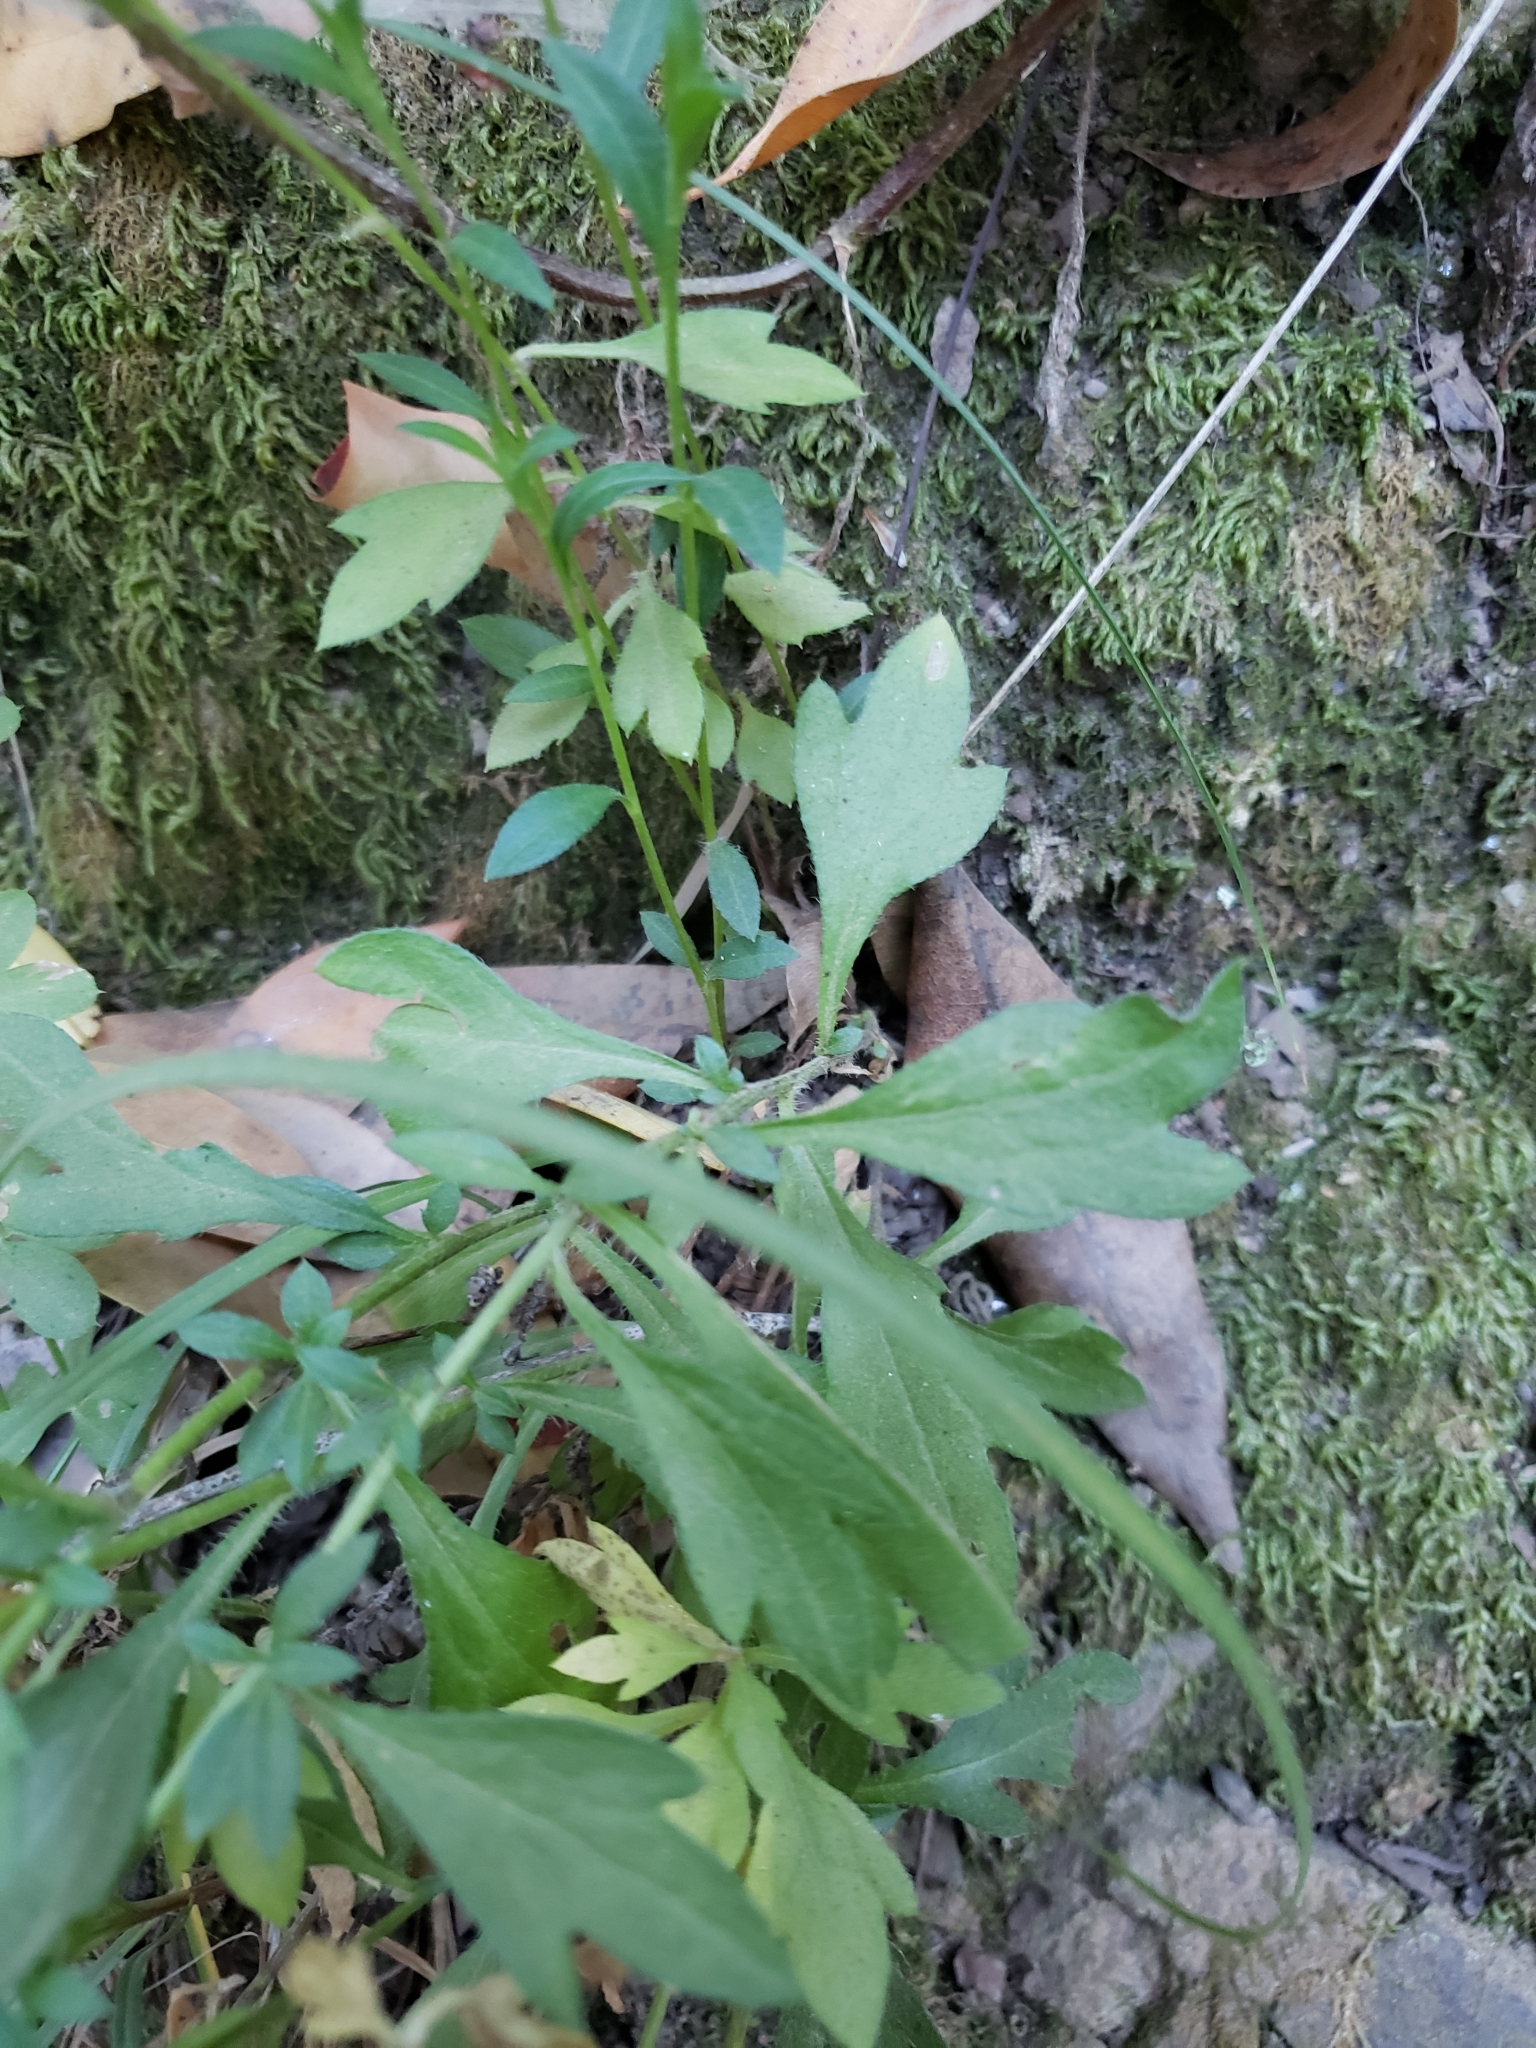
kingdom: Plantae
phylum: Tracheophyta
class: Magnoliopsida
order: Asterales
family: Asteraceae
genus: Erigeron
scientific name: Erigeron karvinskianus
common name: Mexican fleabane
